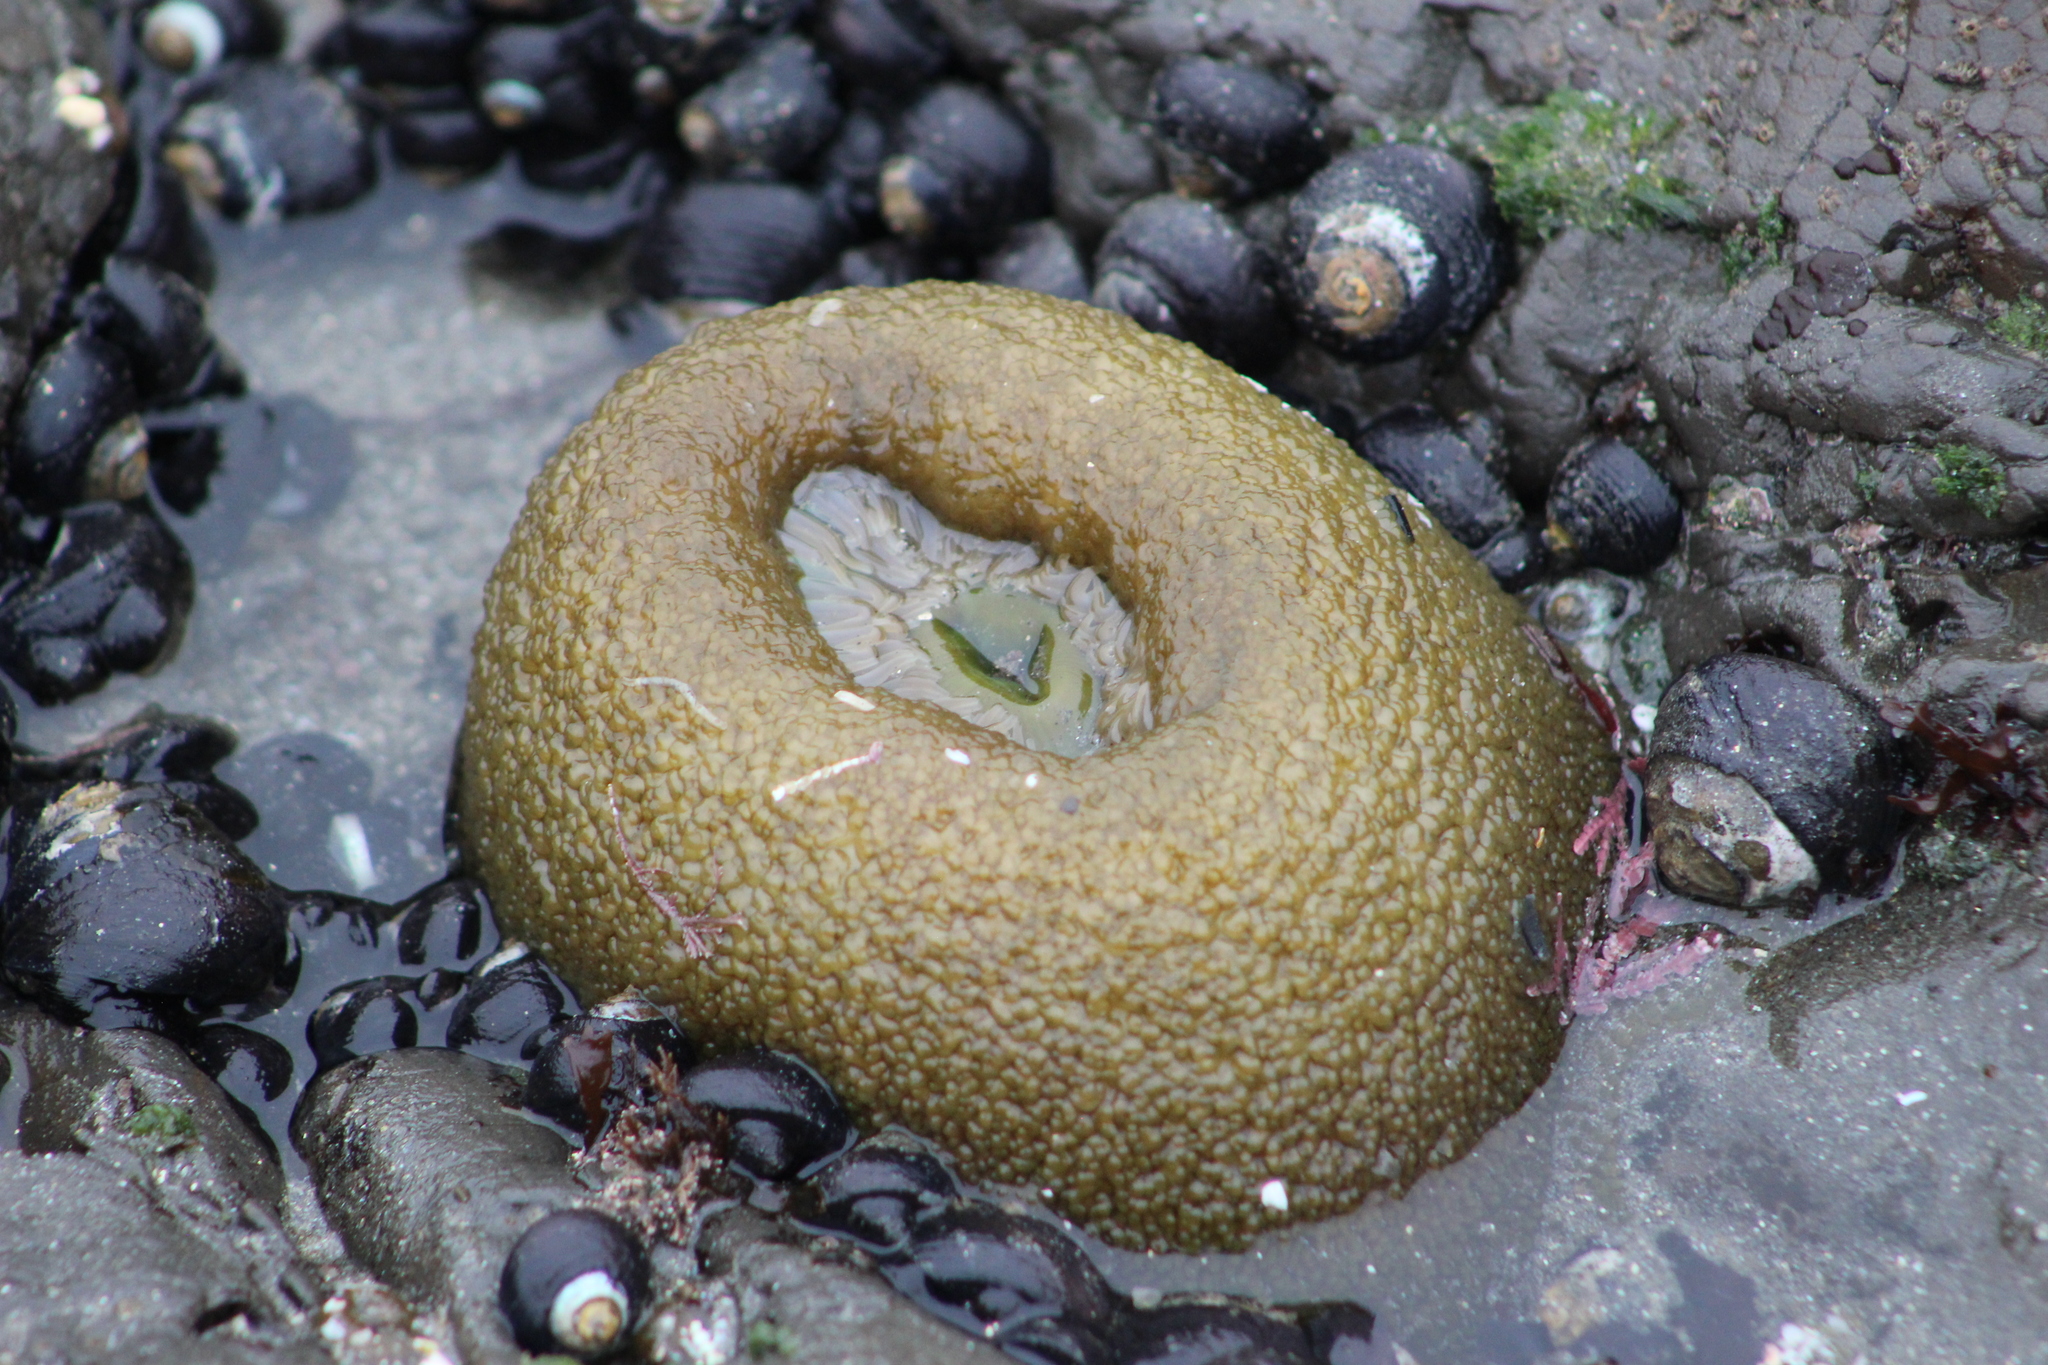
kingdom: Animalia
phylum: Cnidaria
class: Anthozoa
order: Actiniaria
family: Actiniidae
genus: Anthopleura
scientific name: Anthopleura xanthogrammica
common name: Giant green anemone
